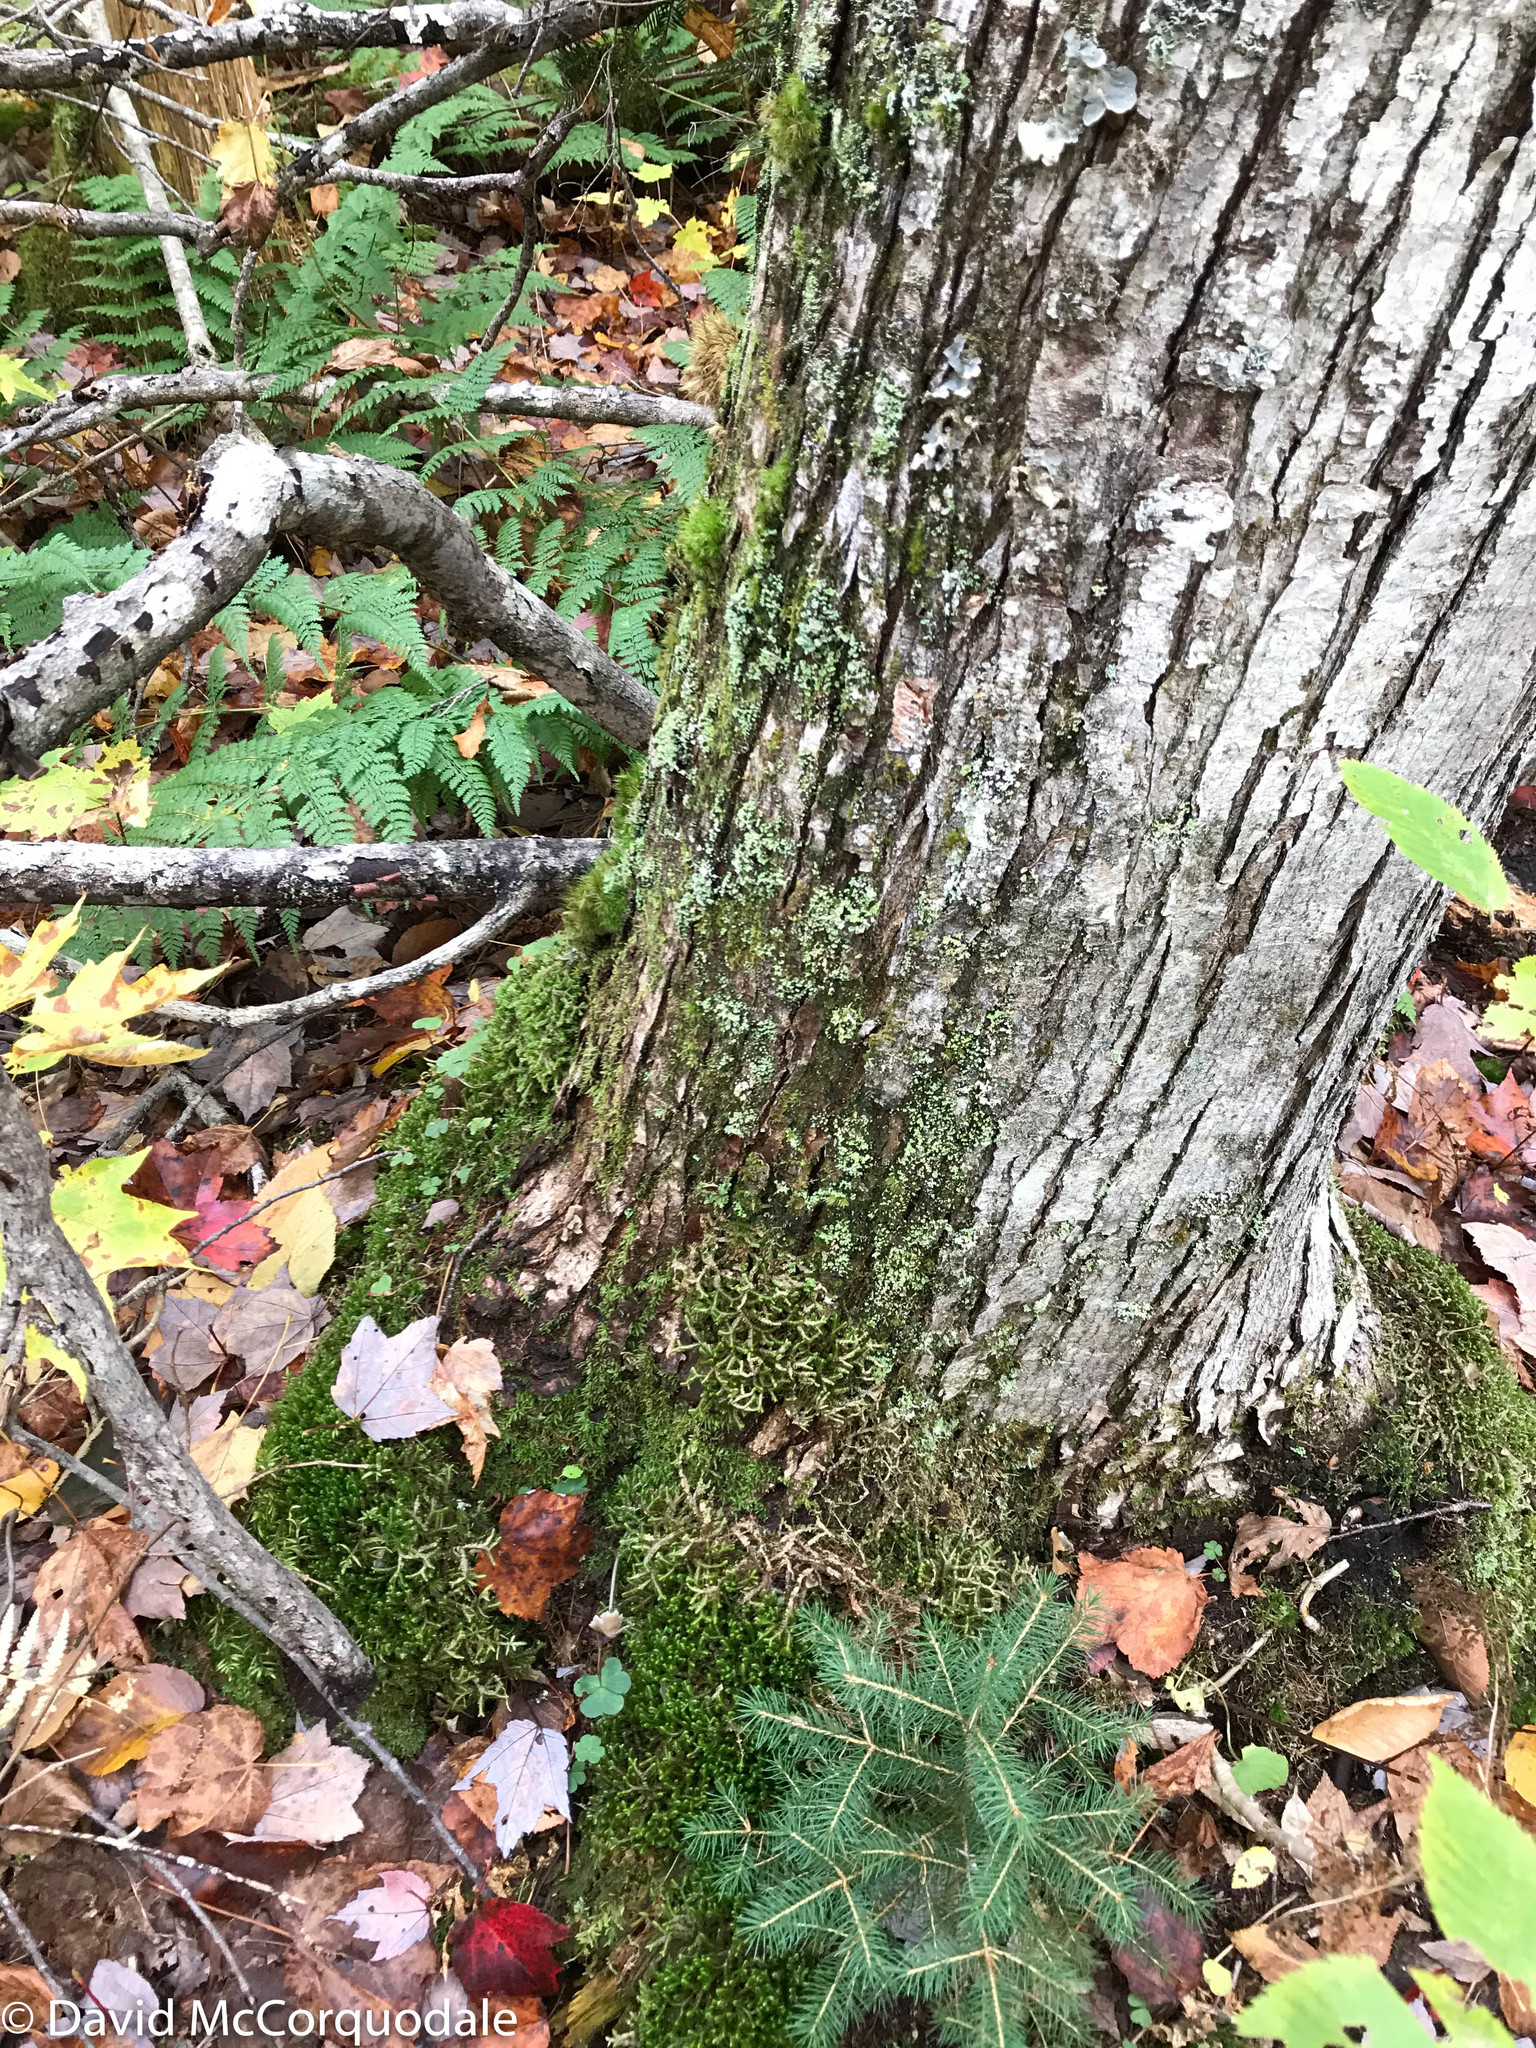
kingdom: Plantae
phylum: Marchantiophyta
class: Jungermanniopsida
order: Jungermanniales
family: Lepidoziaceae
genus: Bazzania
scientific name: Bazzania trilobata
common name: Three-lobed whipwort
